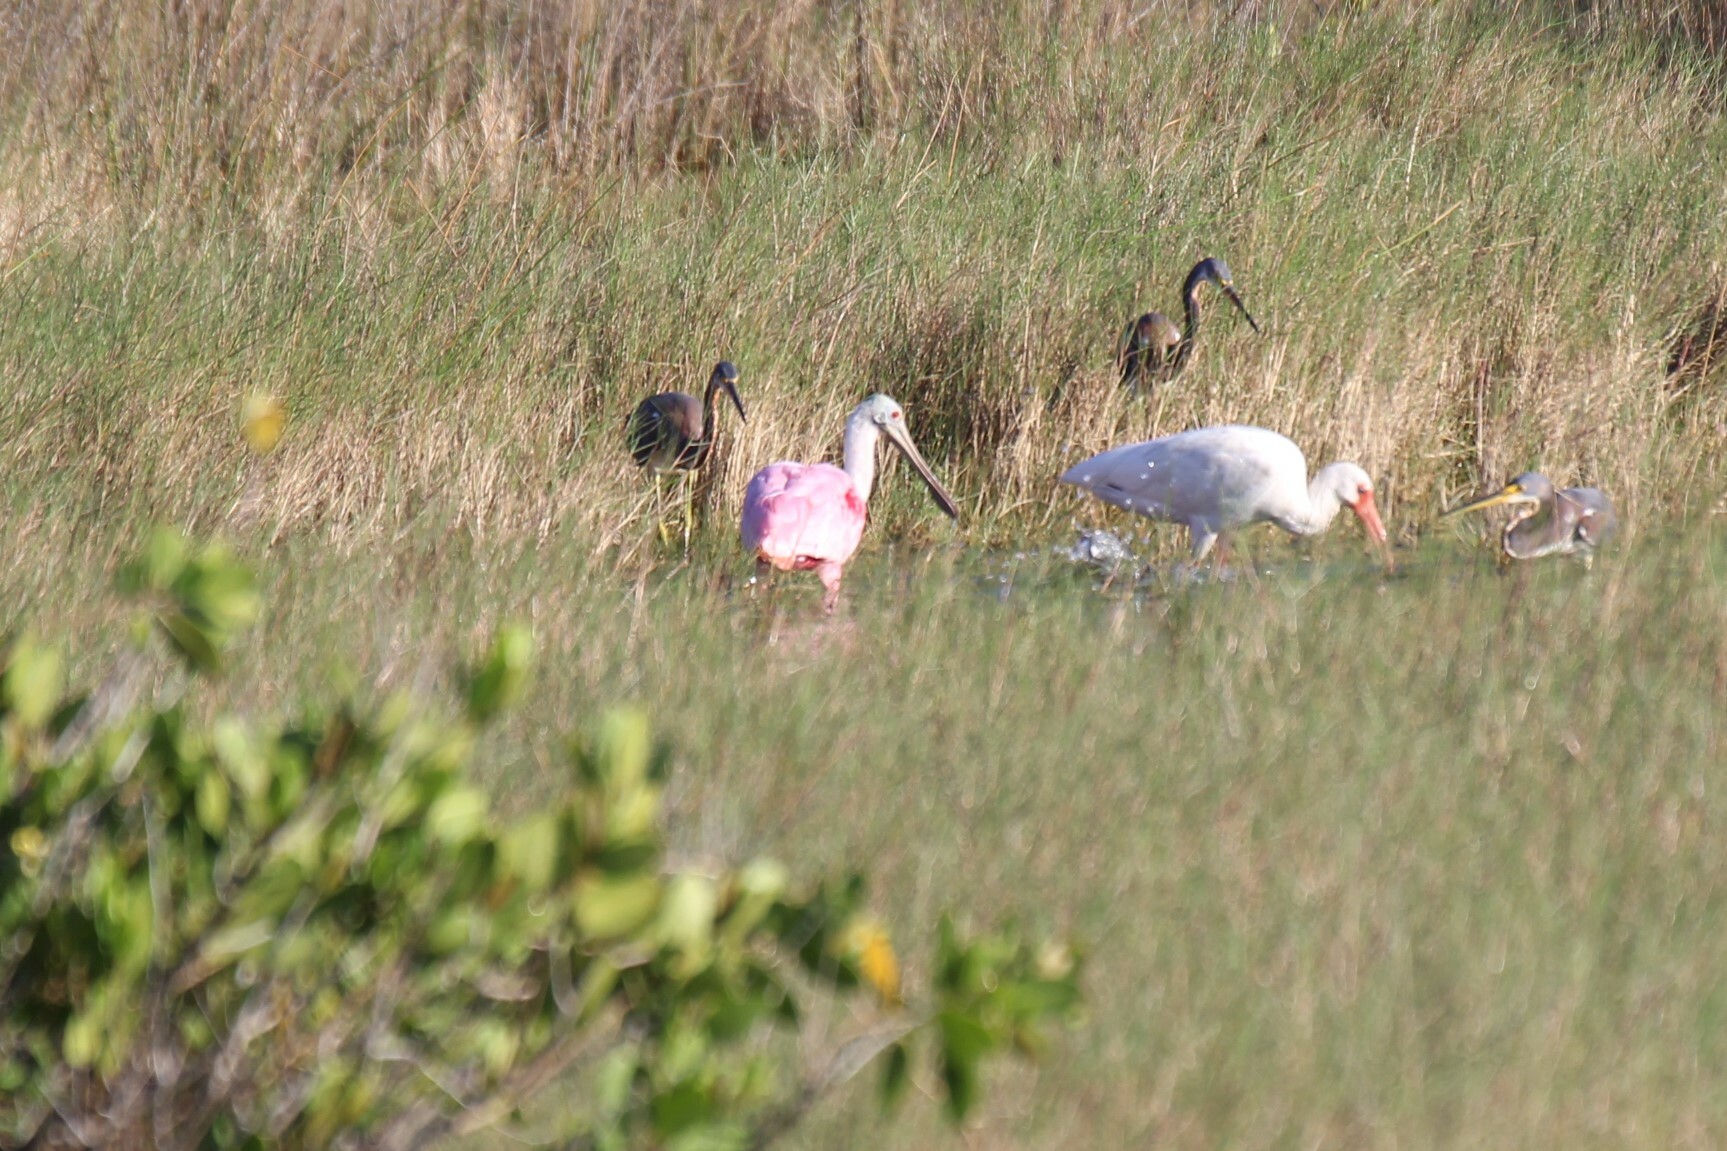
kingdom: Animalia
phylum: Chordata
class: Aves
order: Pelecaniformes
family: Threskiornithidae
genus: Platalea
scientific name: Platalea ajaja
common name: Roseate spoonbill
